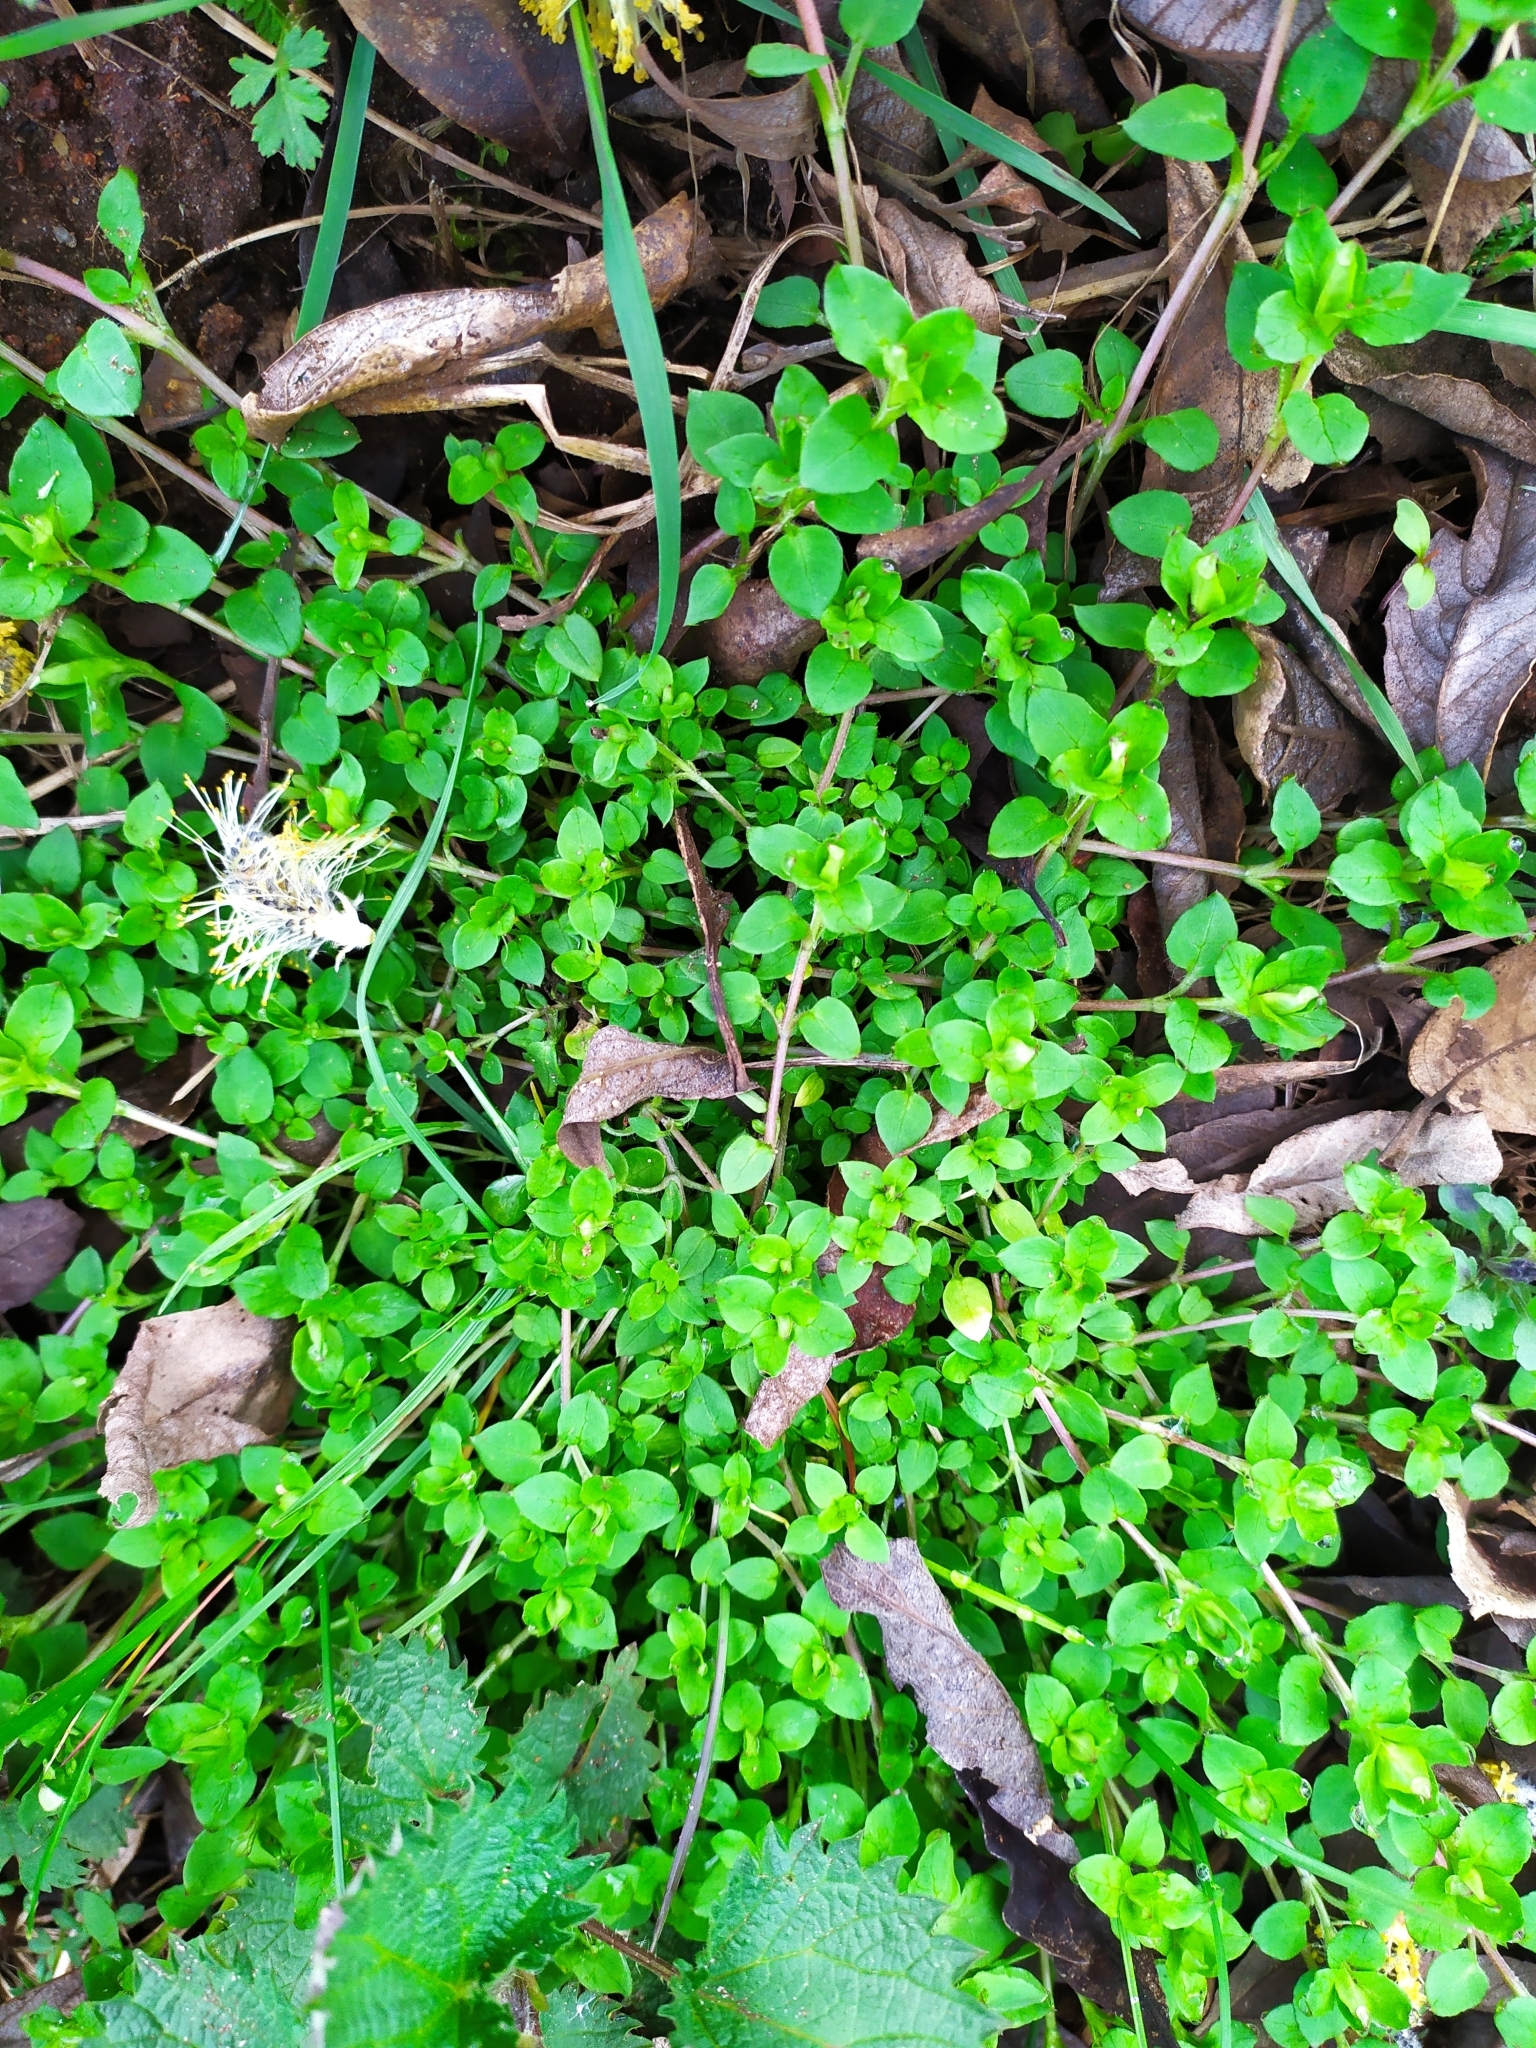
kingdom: Plantae
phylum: Tracheophyta
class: Magnoliopsida
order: Caryophyllales
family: Caryophyllaceae
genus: Stellaria
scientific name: Stellaria media
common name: Common chickweed
